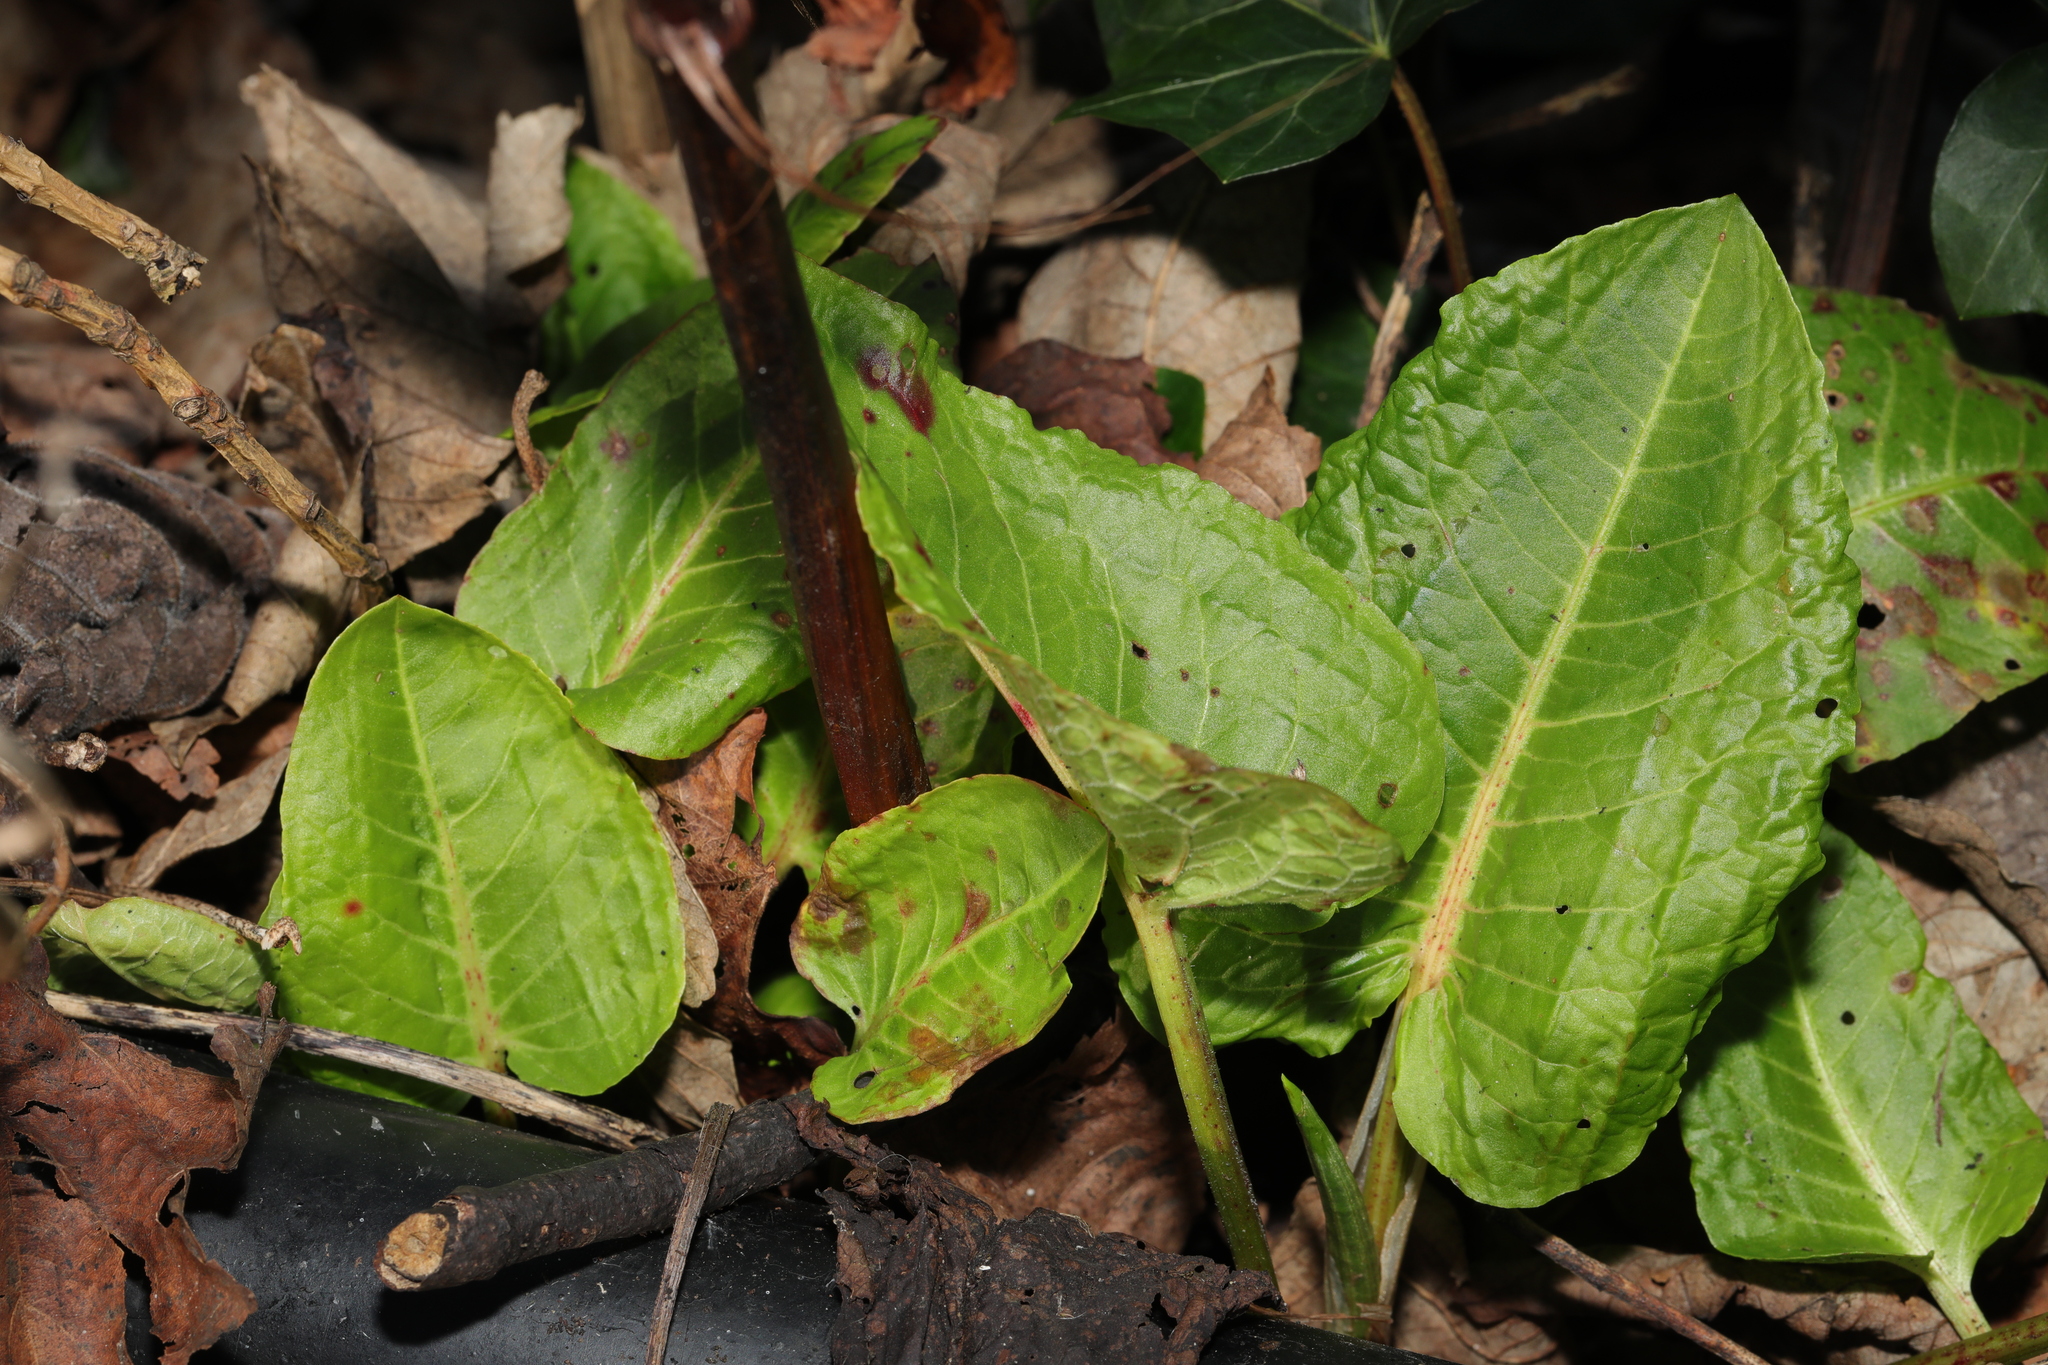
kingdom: Plantae
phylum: Tracheophyta
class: Magnoliopsida
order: Caryophyllales
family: Polygonaceae
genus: Rumex
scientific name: Rumex obtusifolius
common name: Bitter dock
